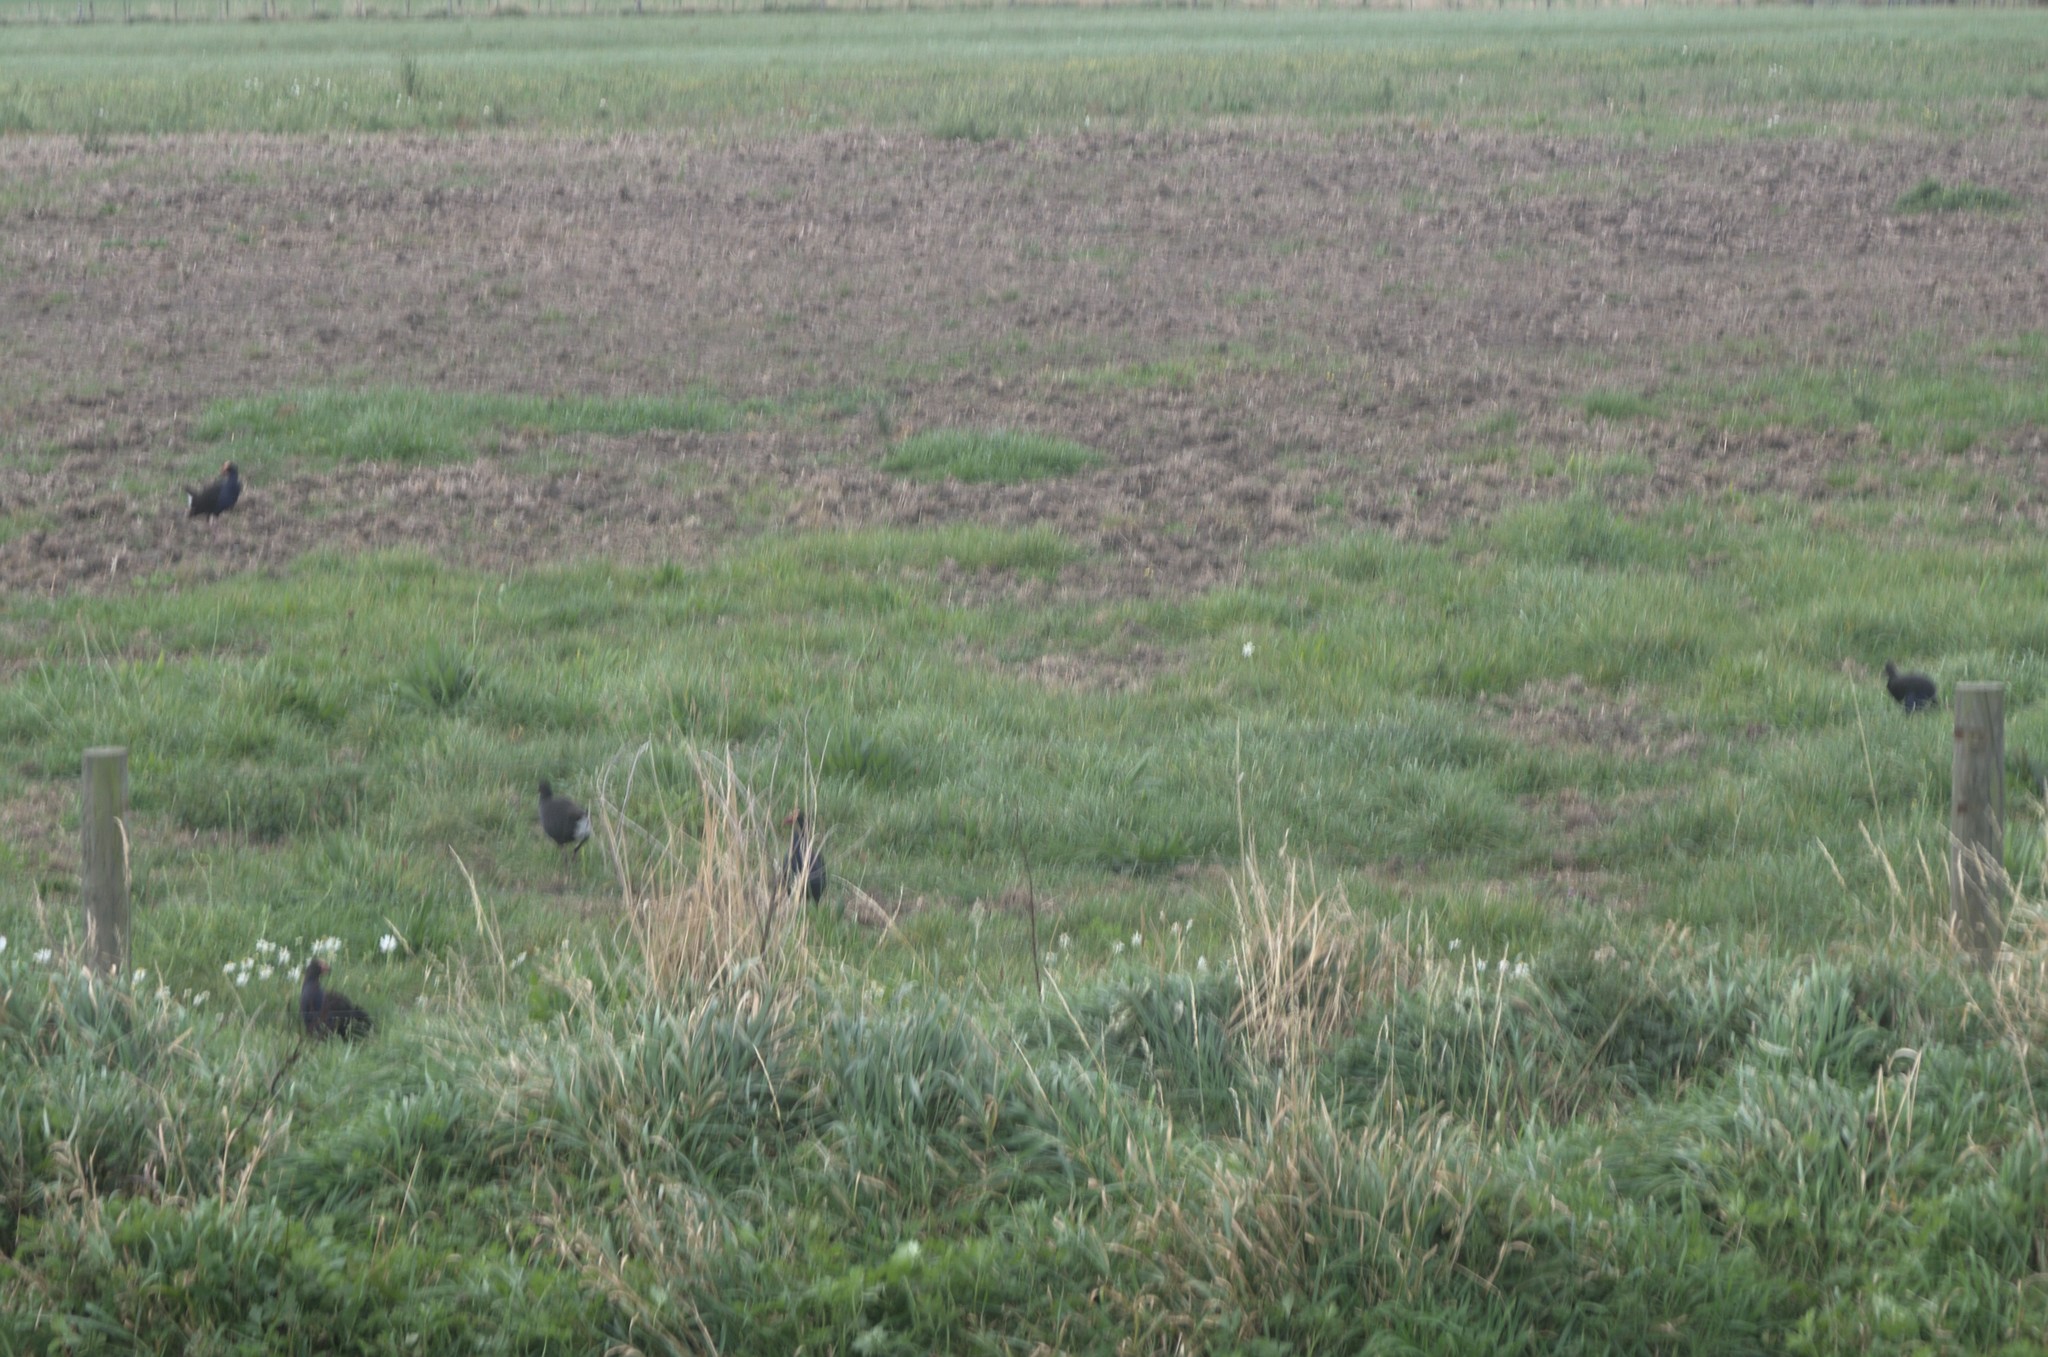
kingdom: Animalia
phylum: Chordata
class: Aves
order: Gruiformes
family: Rallidae
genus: Porphyrio
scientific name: Porphyrio melanotus
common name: Australasian swamphen
